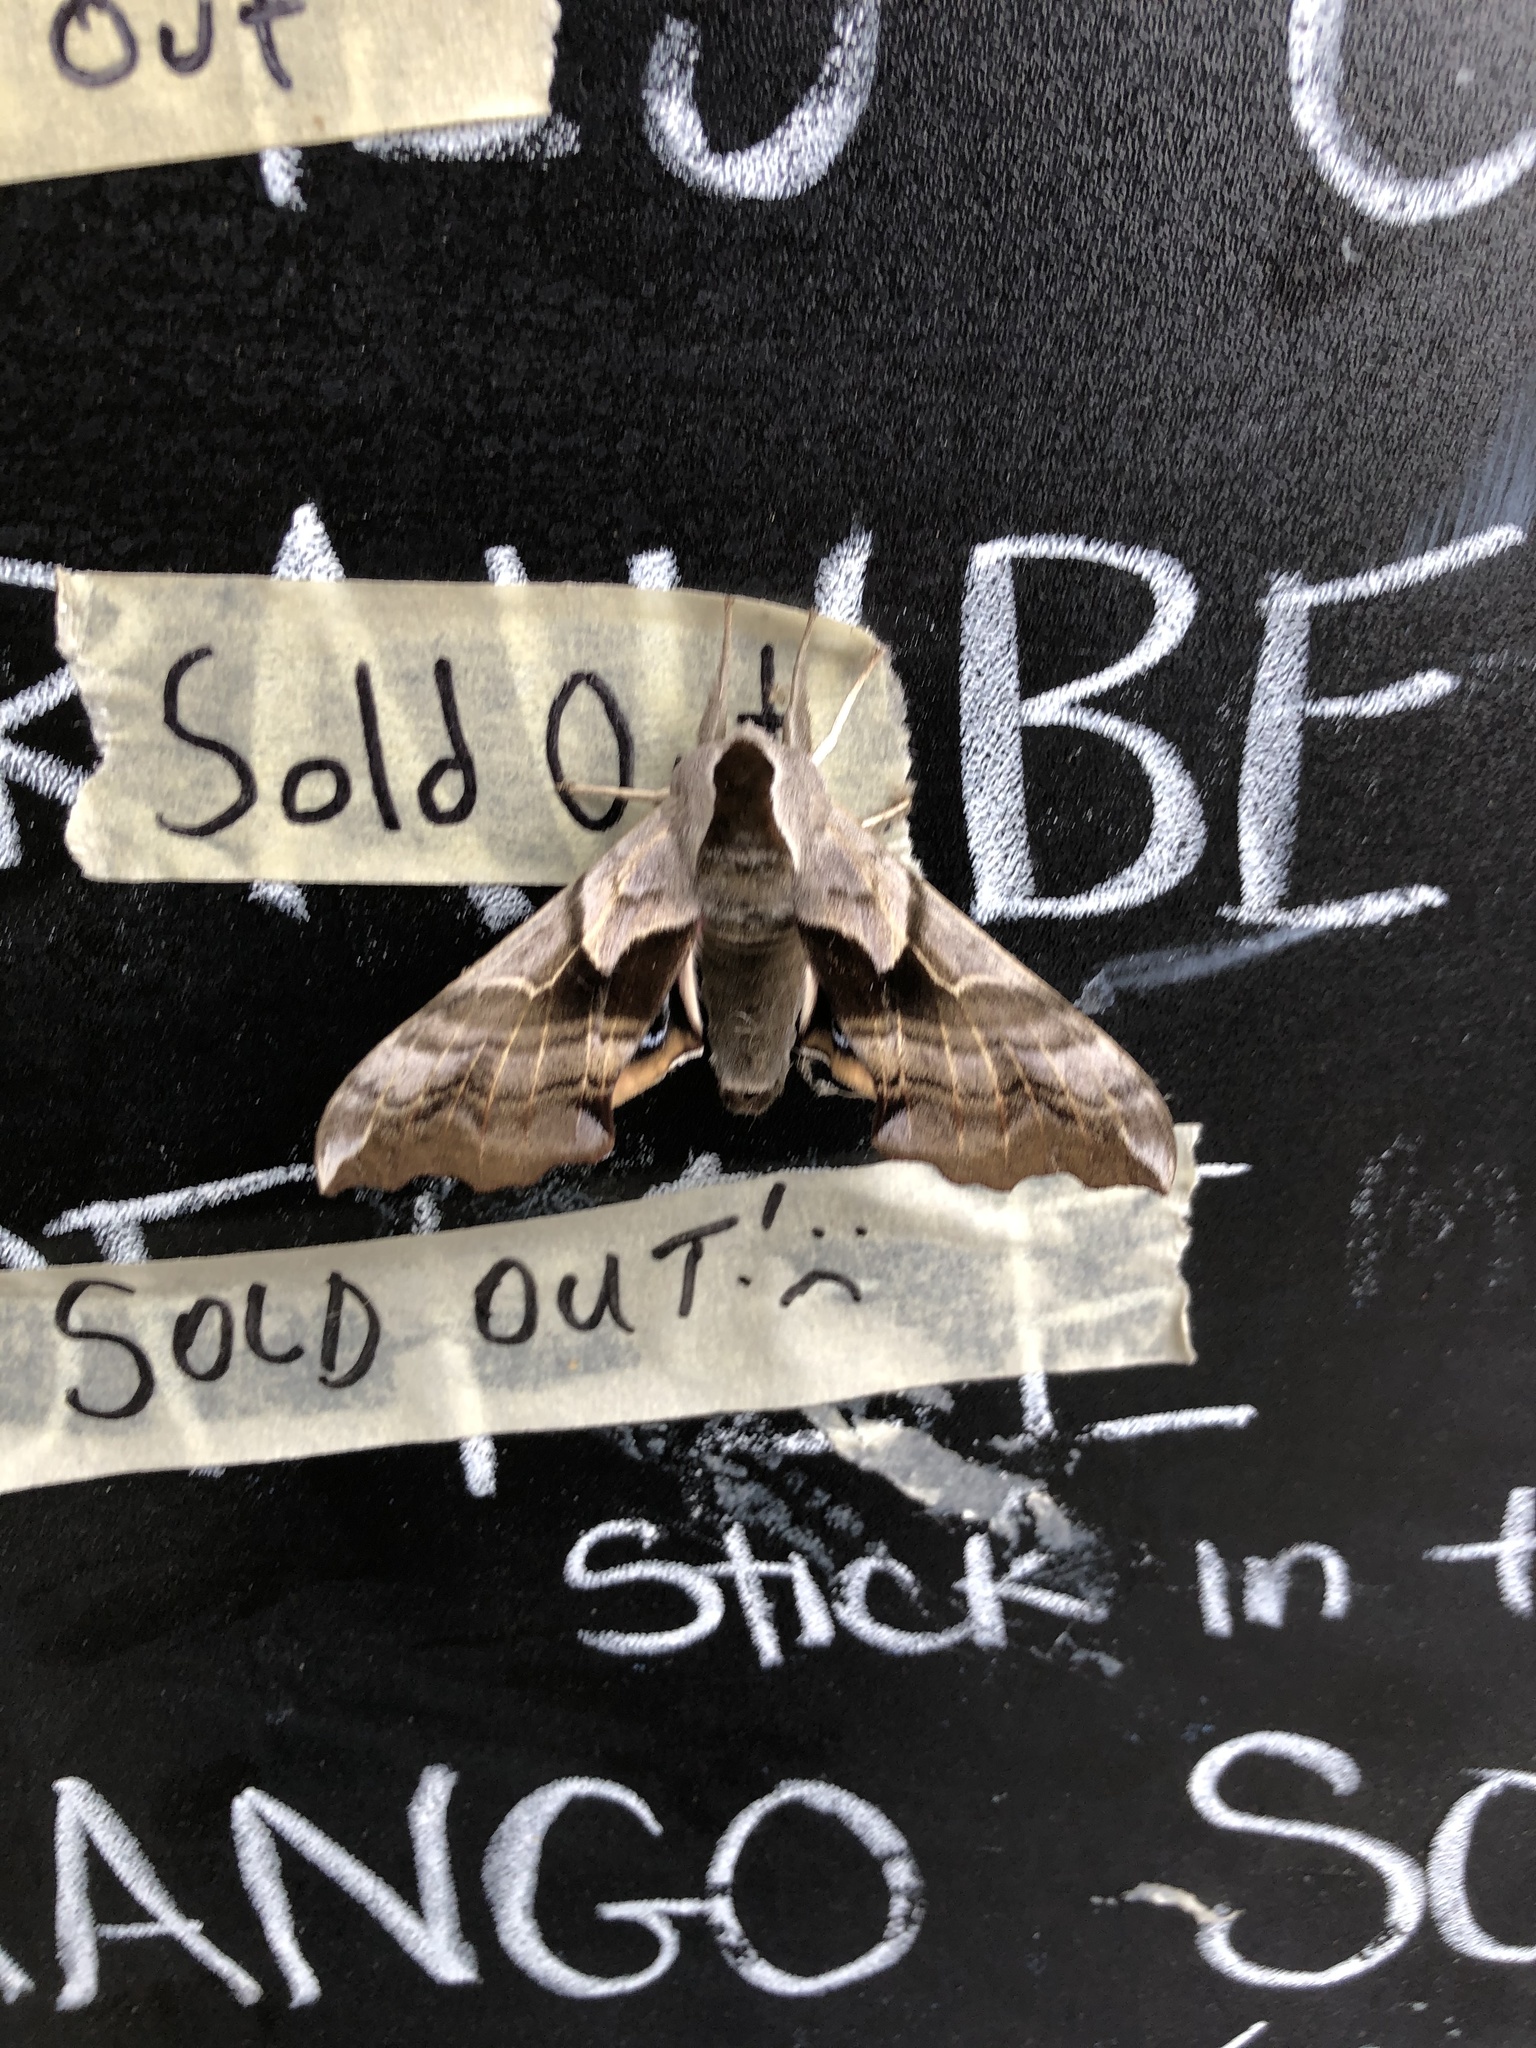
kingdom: Animalia
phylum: Arthropoda
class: Insecta
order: Lepidoptera
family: Sphingidae
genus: Smerinthus
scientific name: Smerinthus cerisyi
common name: Cerisy's sphinx moth
